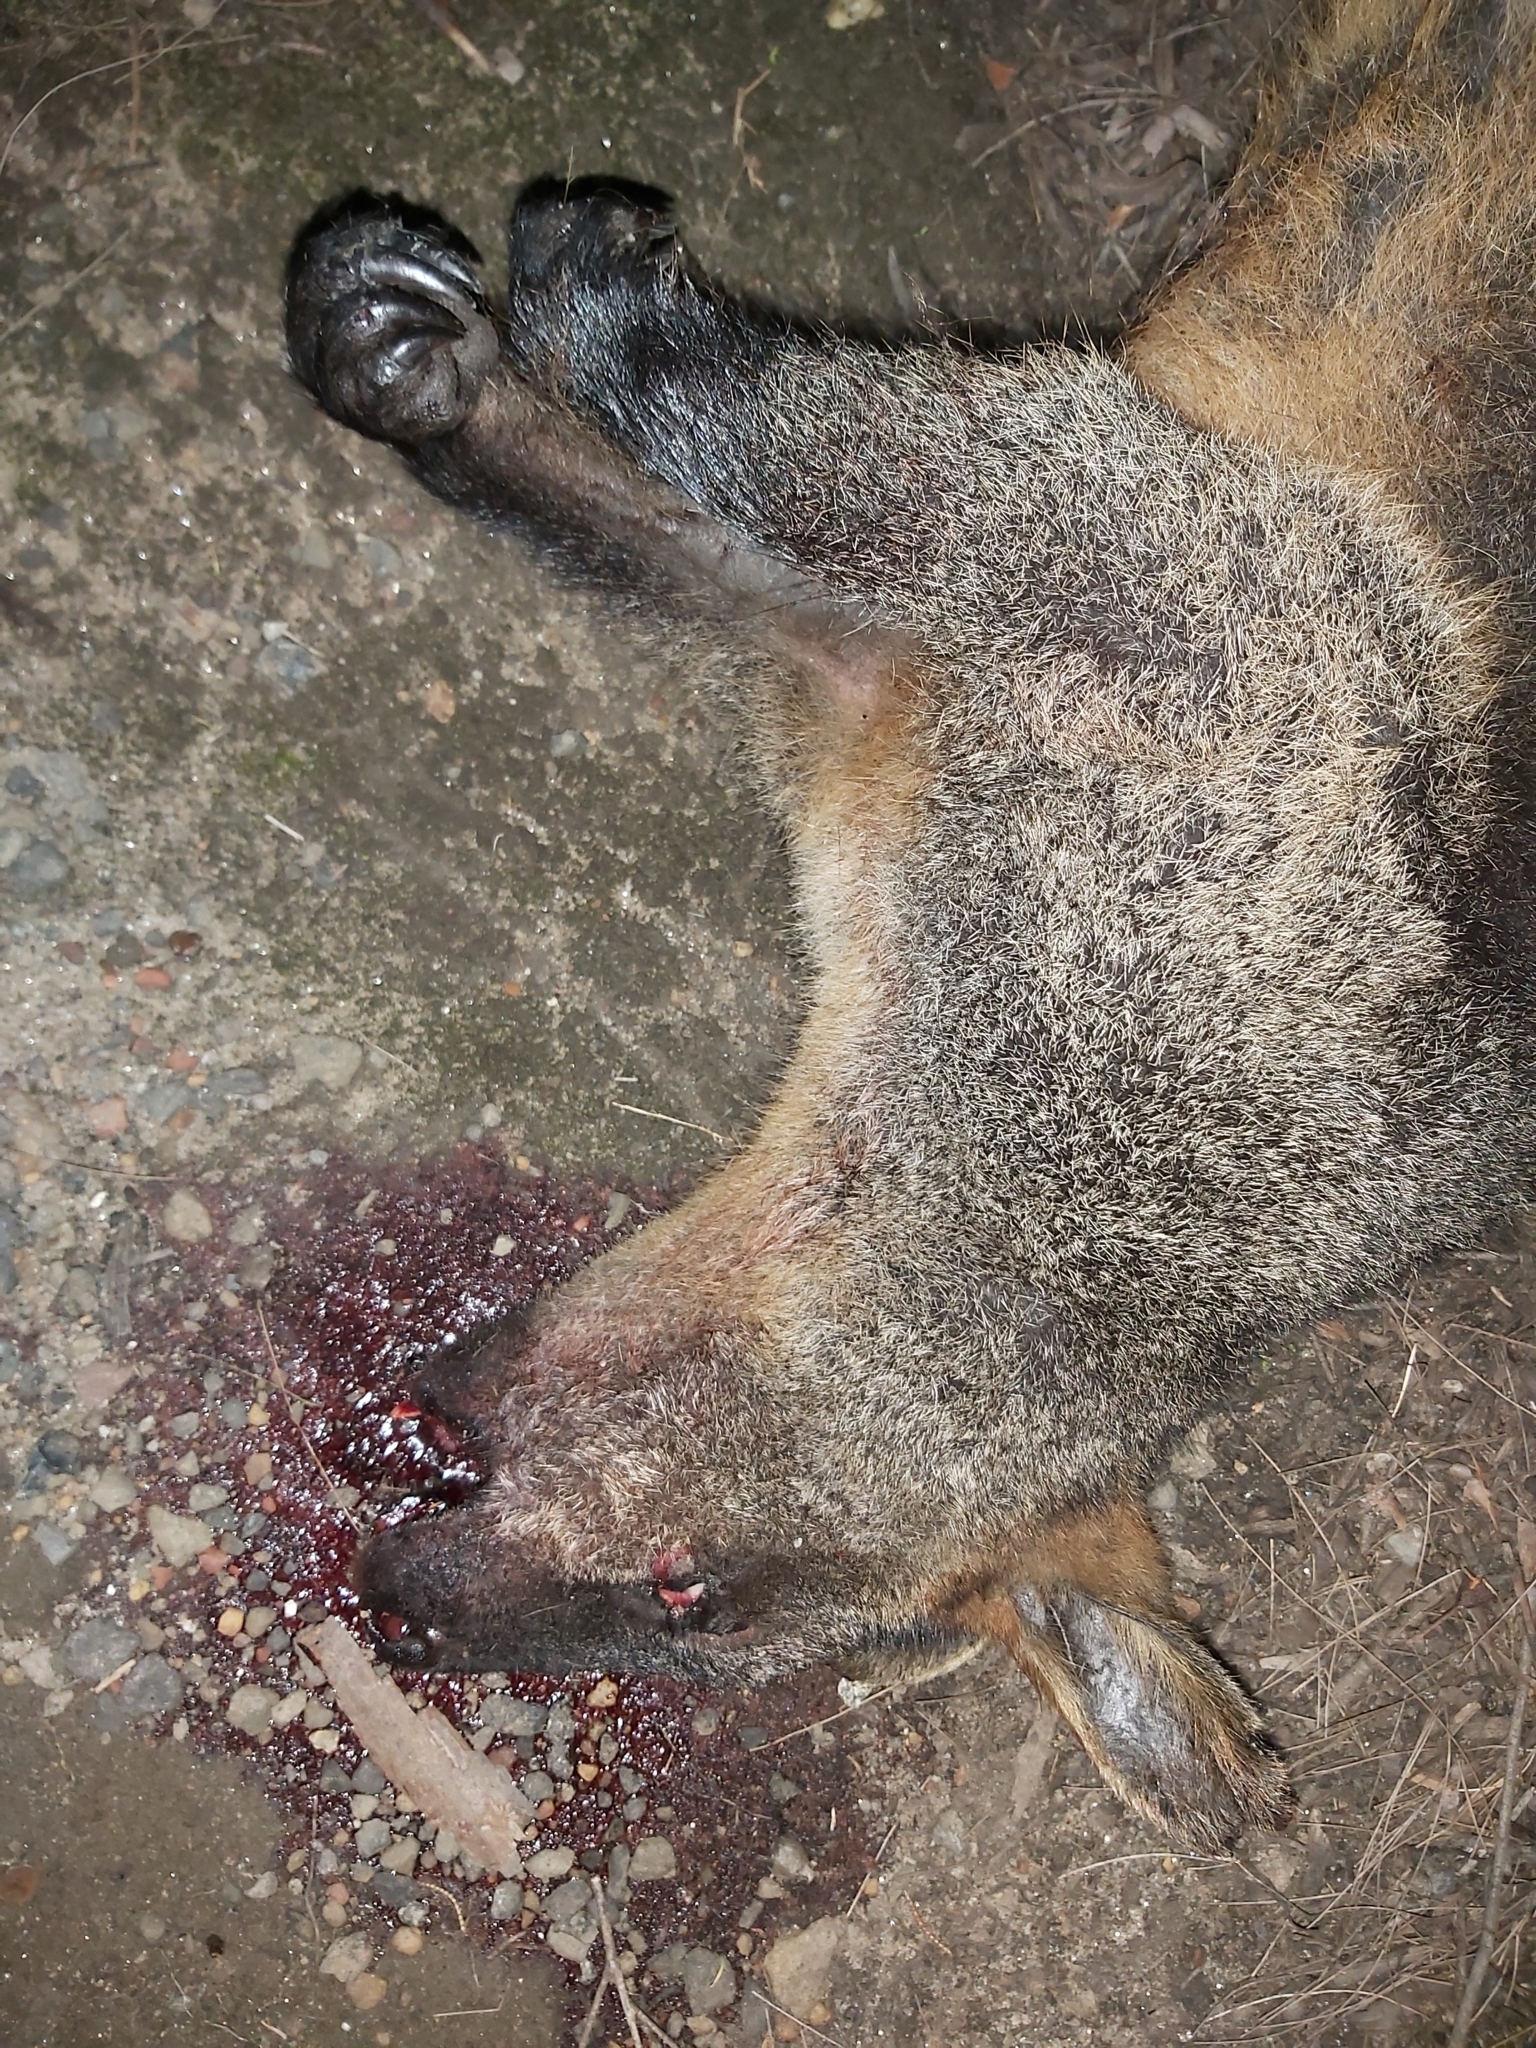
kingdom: Animalia
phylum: Chordata
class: Mammalia
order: Diprotodontia
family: Macropodidae
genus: Wallabia
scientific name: Wallabia bicolor
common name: Swamp wallaby
